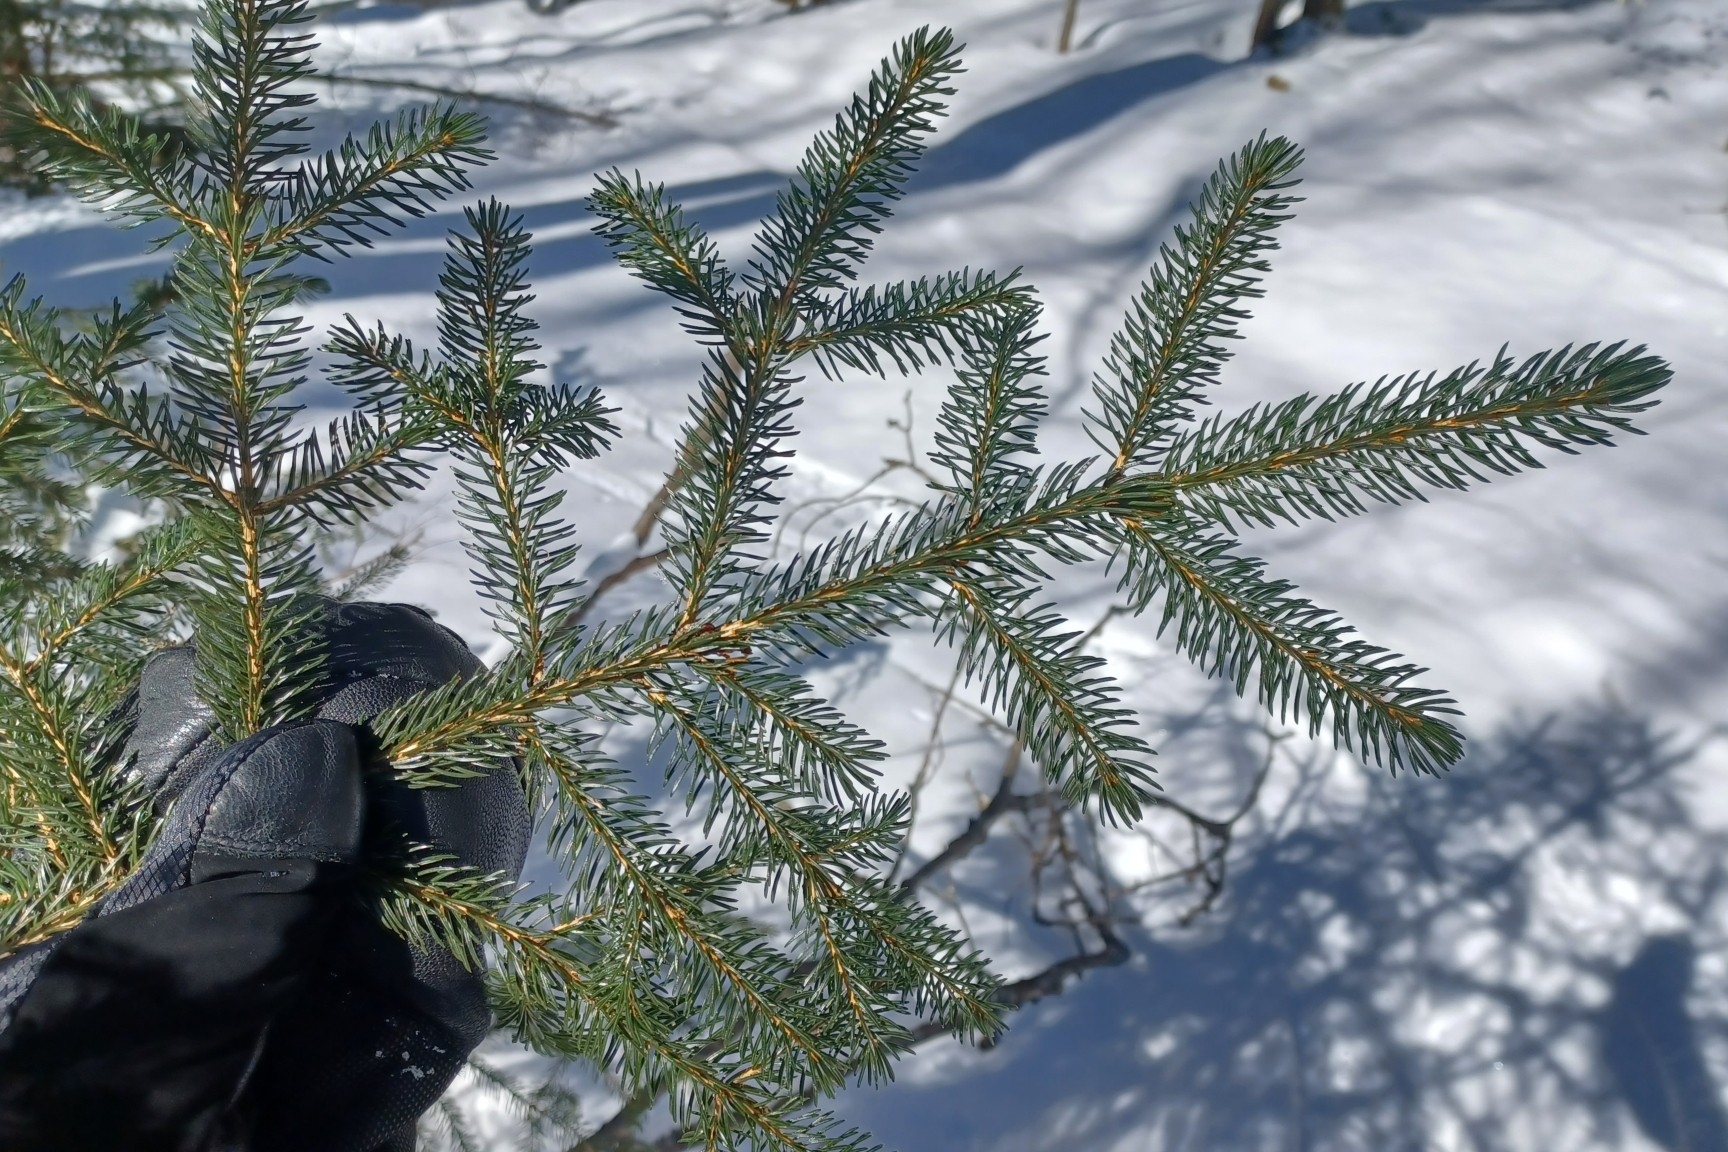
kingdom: Plantae
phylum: Tracheophyta
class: Pinopsida
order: Pinales
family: Pinaceae
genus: Picea
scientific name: Picea rubens
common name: Red spruce
